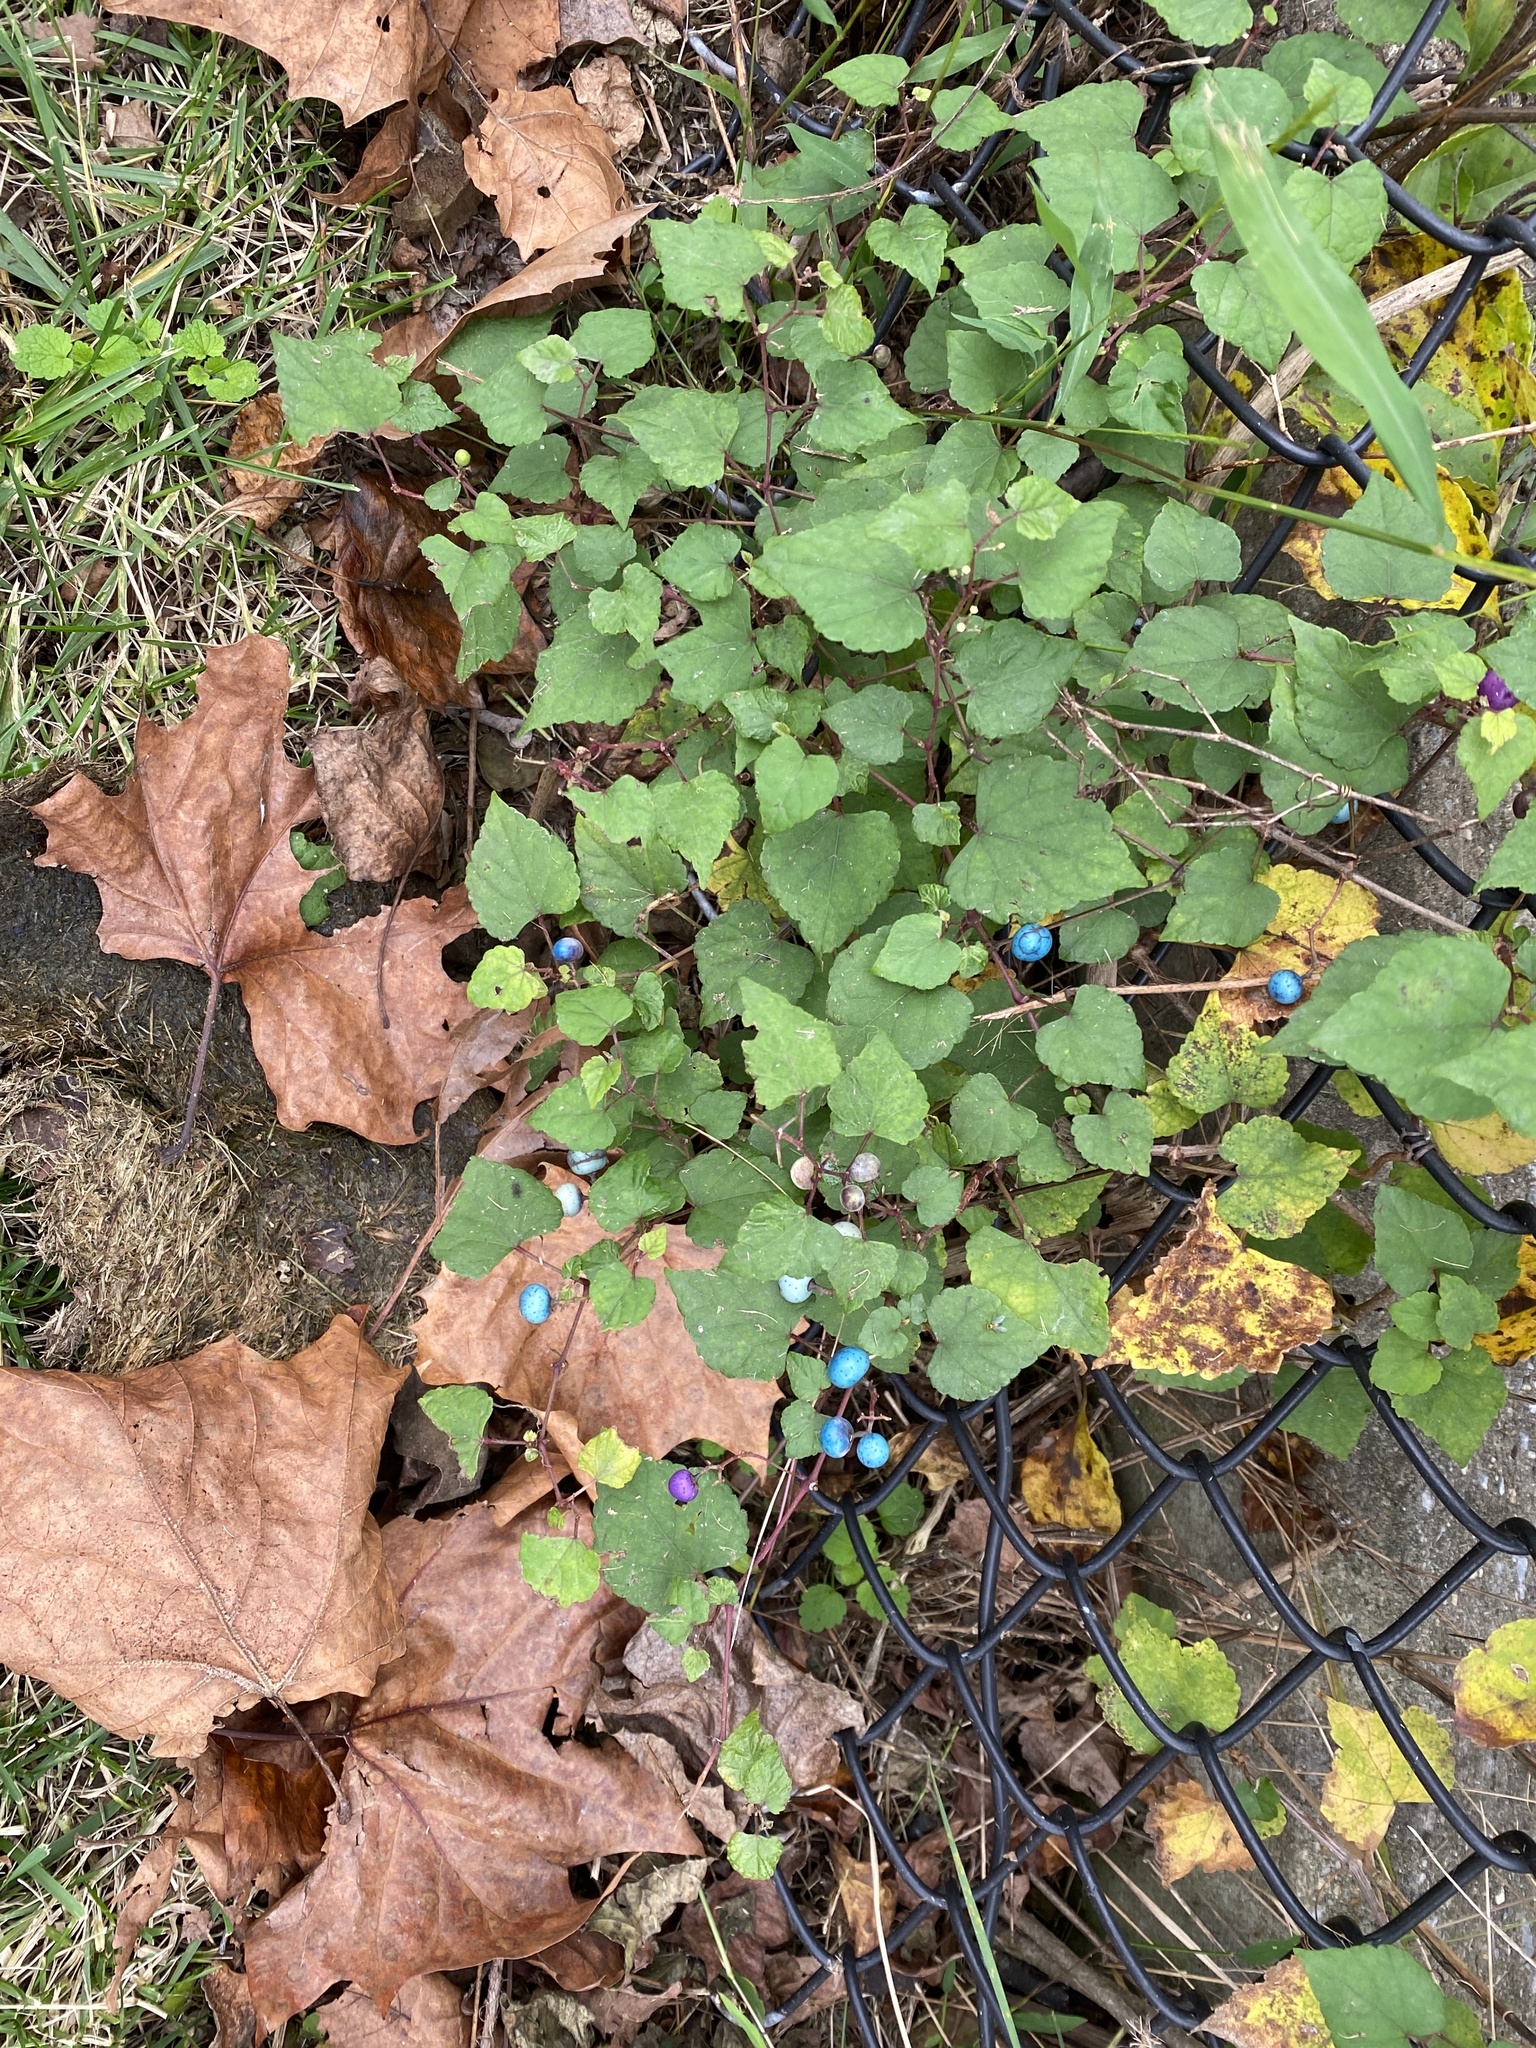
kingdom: Plantae
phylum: Tracheophyta
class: Magnoliopsida
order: Vitales
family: Vitaceae
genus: Ampelopsis
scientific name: Ampelopsis glandulosa
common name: Amur peppervine
